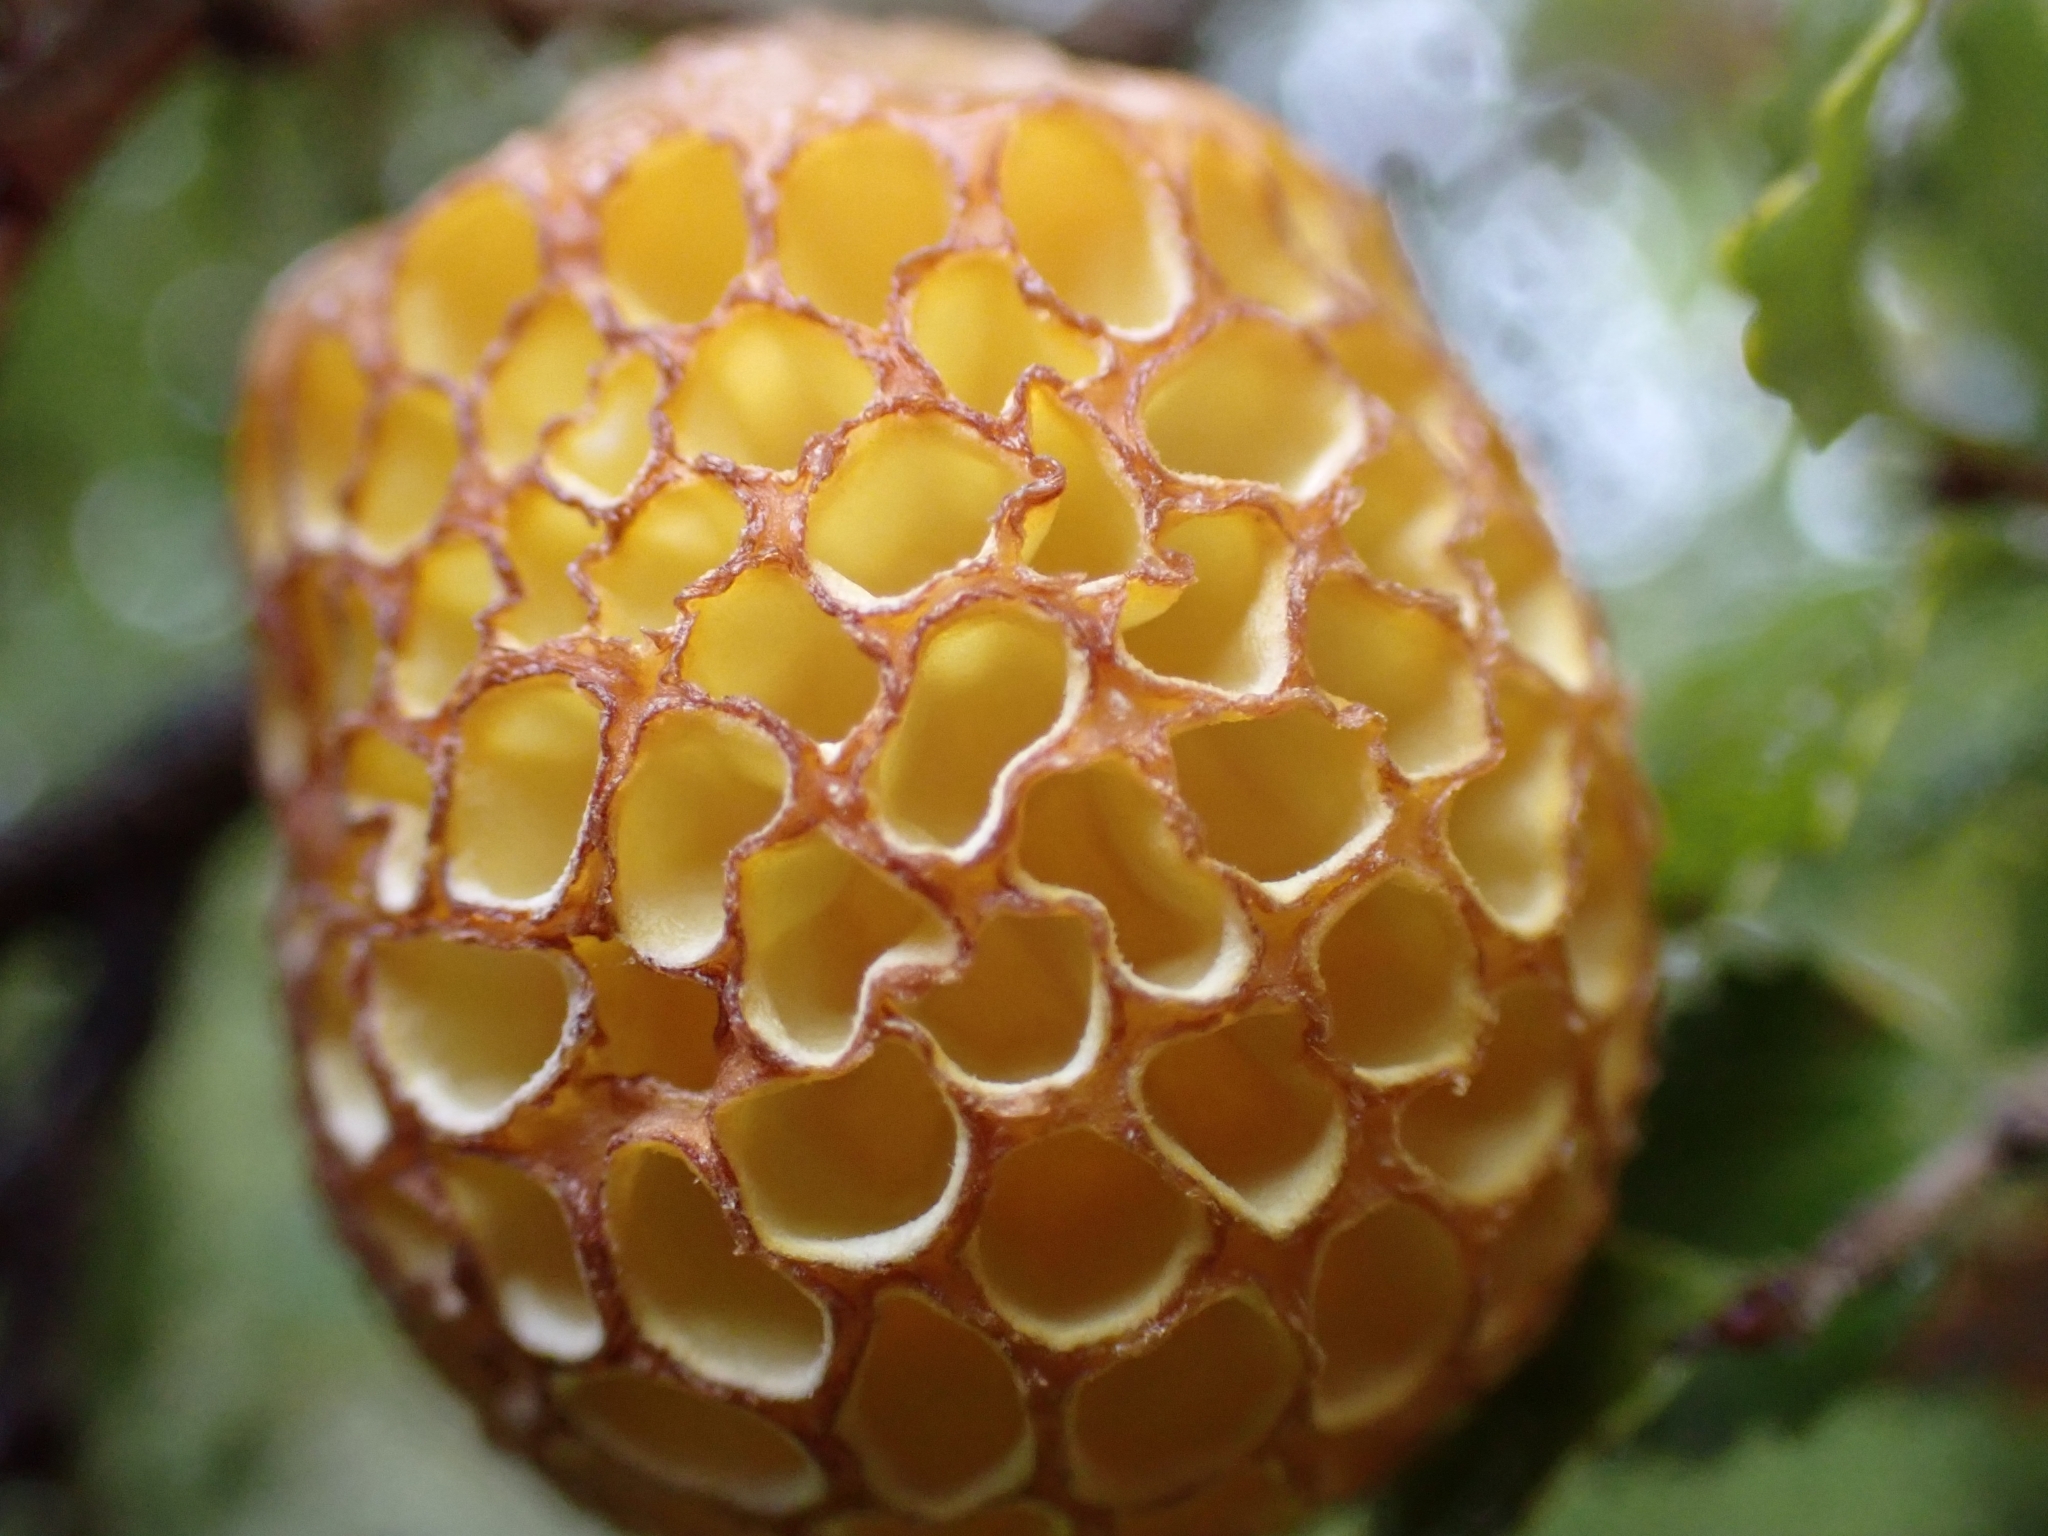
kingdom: Fungi
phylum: Ascomycota
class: Leotiomycetes
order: Cyttariales
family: Cyttariaceae
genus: Cyttaria
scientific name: Cyttaria gunnii
